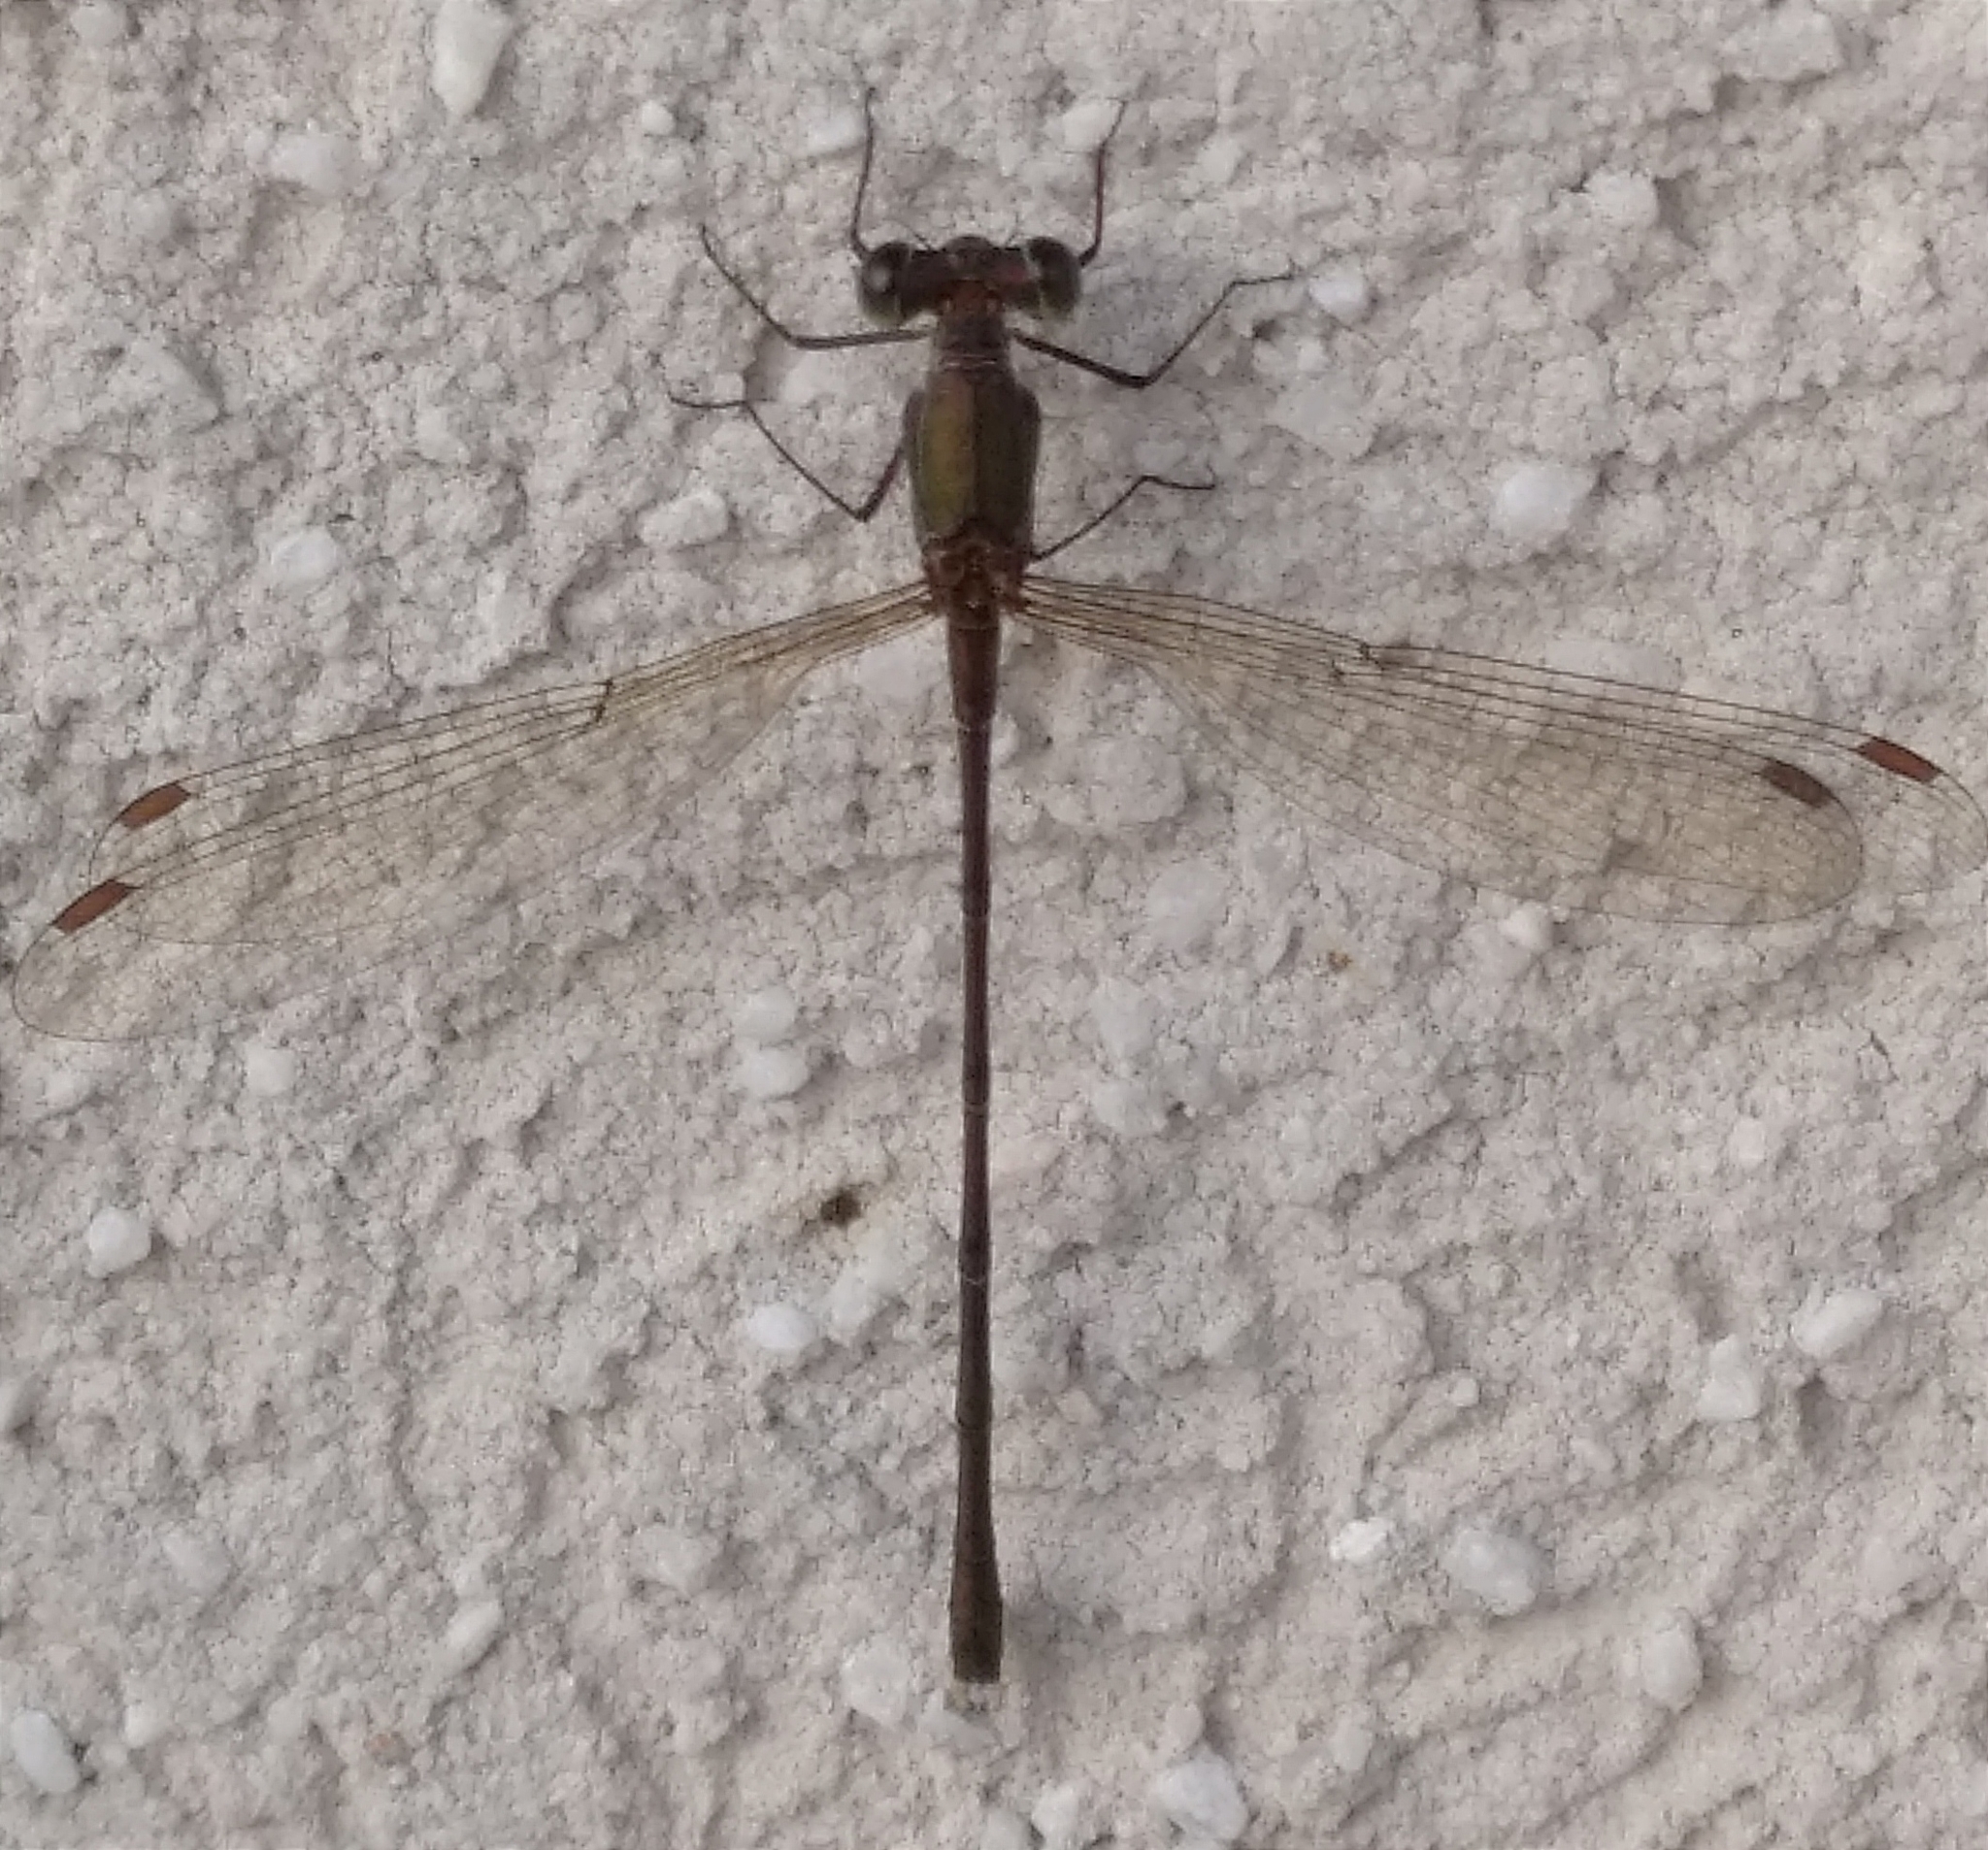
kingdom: Animalia
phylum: Arthropoda
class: Insecta
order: Odonata
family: Lestidae
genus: Chalcolestes
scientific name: Chalcolestes parvidens
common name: Eastern willow spreadwing
